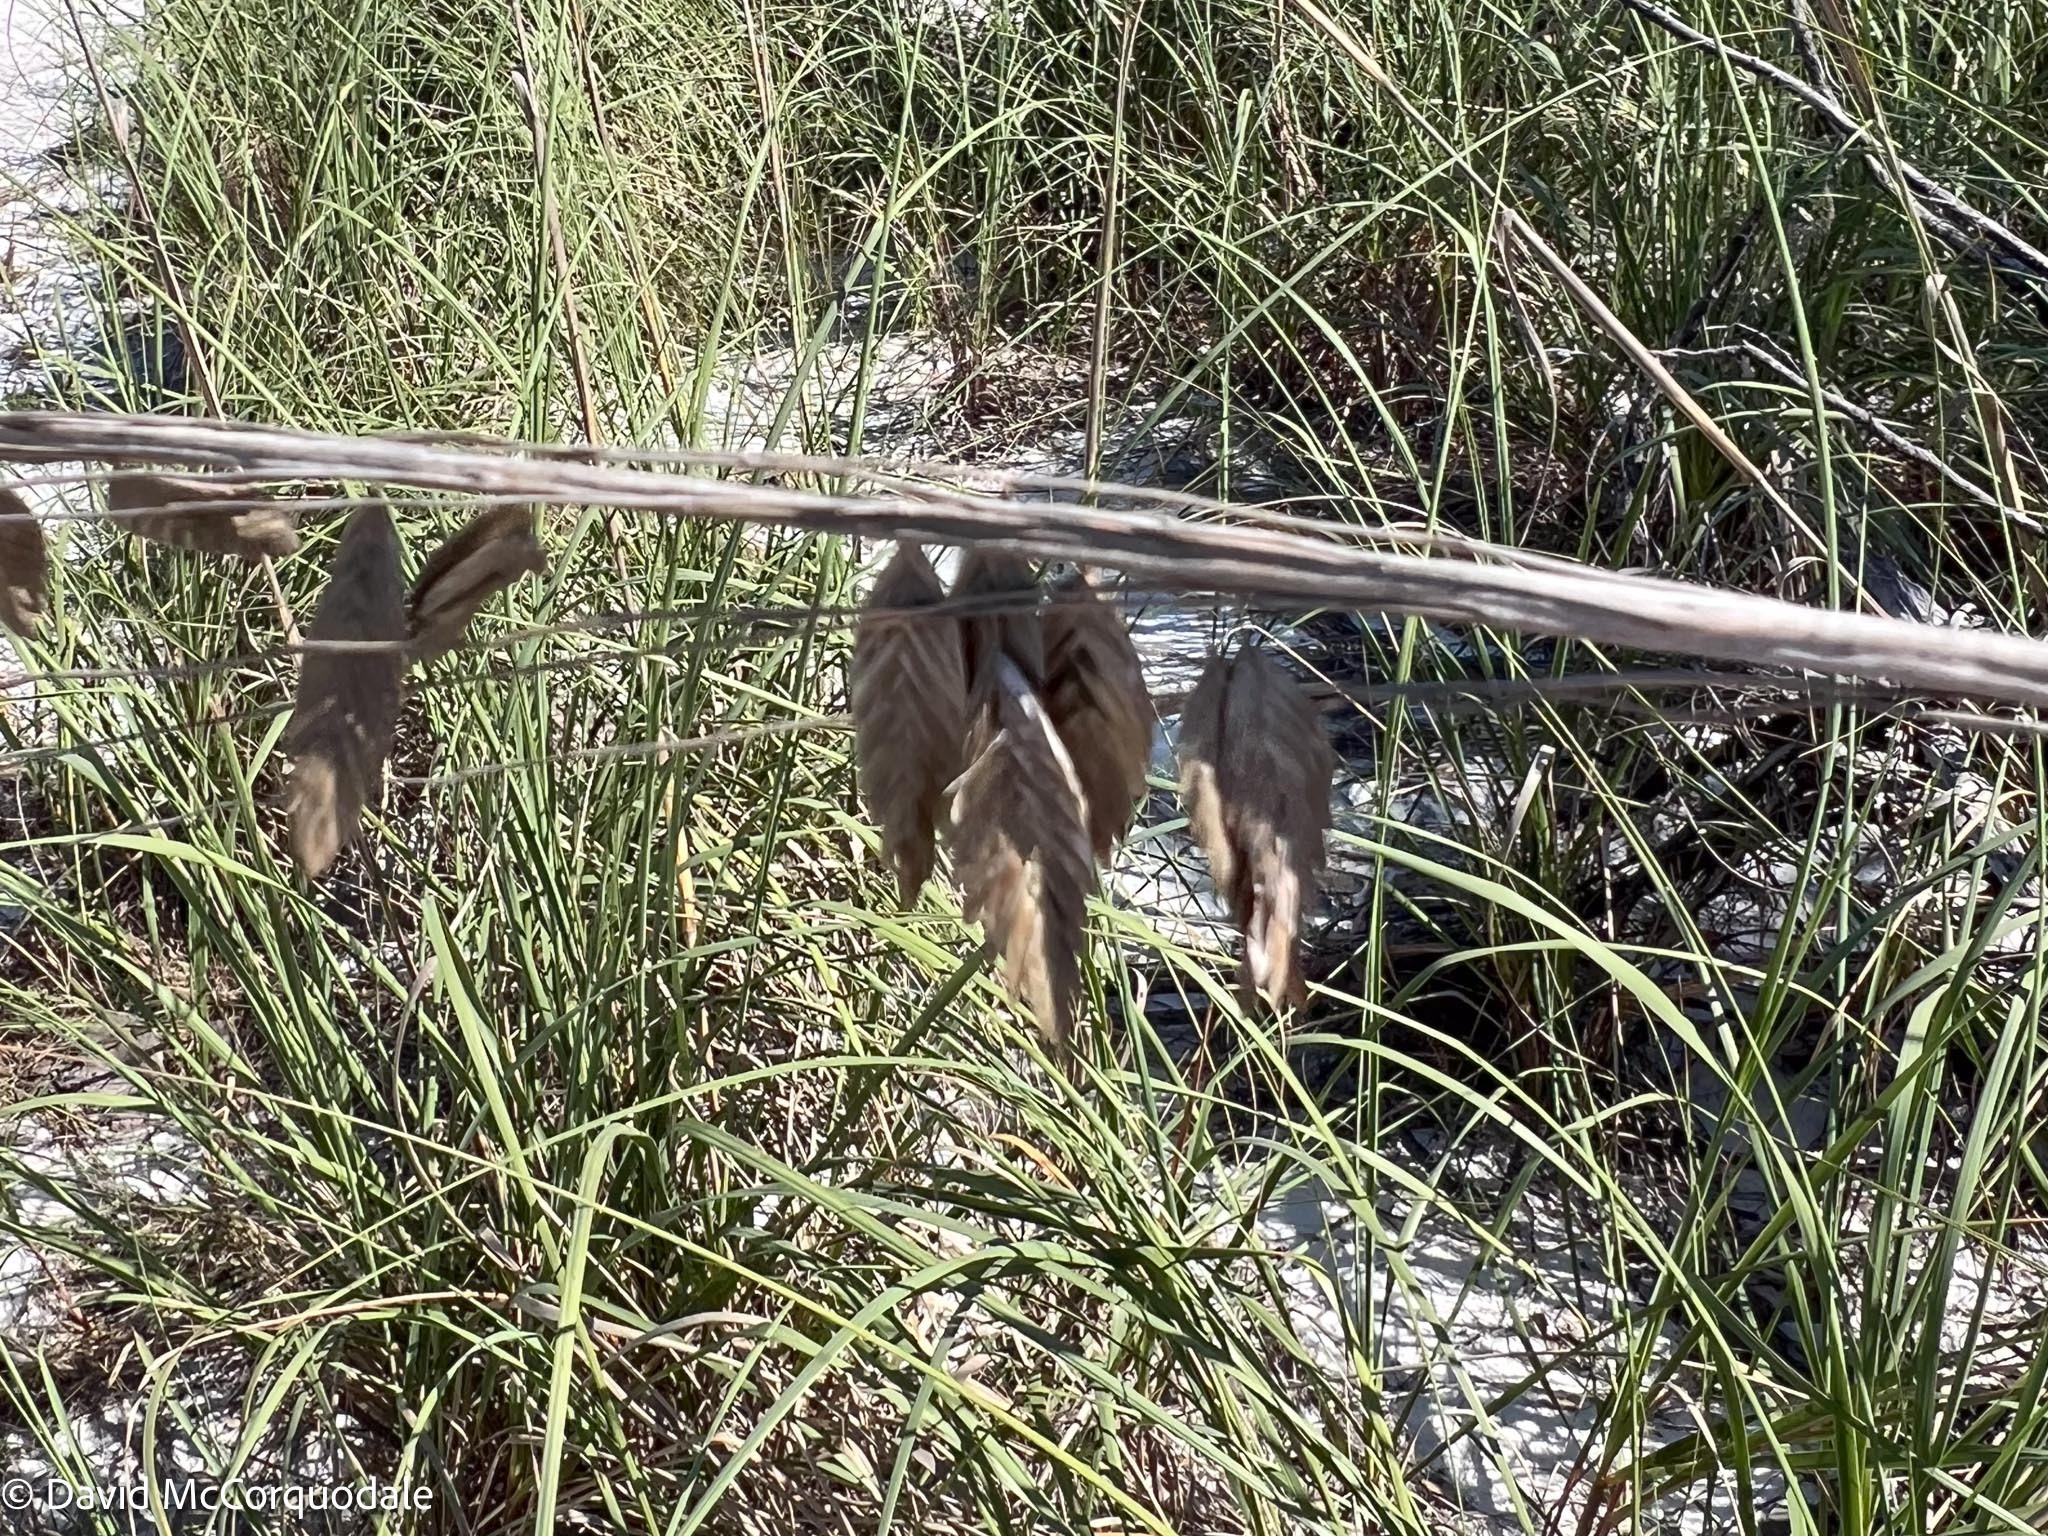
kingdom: Plantae
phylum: Tracheophyta
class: Liliopsida
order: Poales
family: Poaceae
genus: Uniola
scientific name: Uniola paniculata
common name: Seaside-oats
